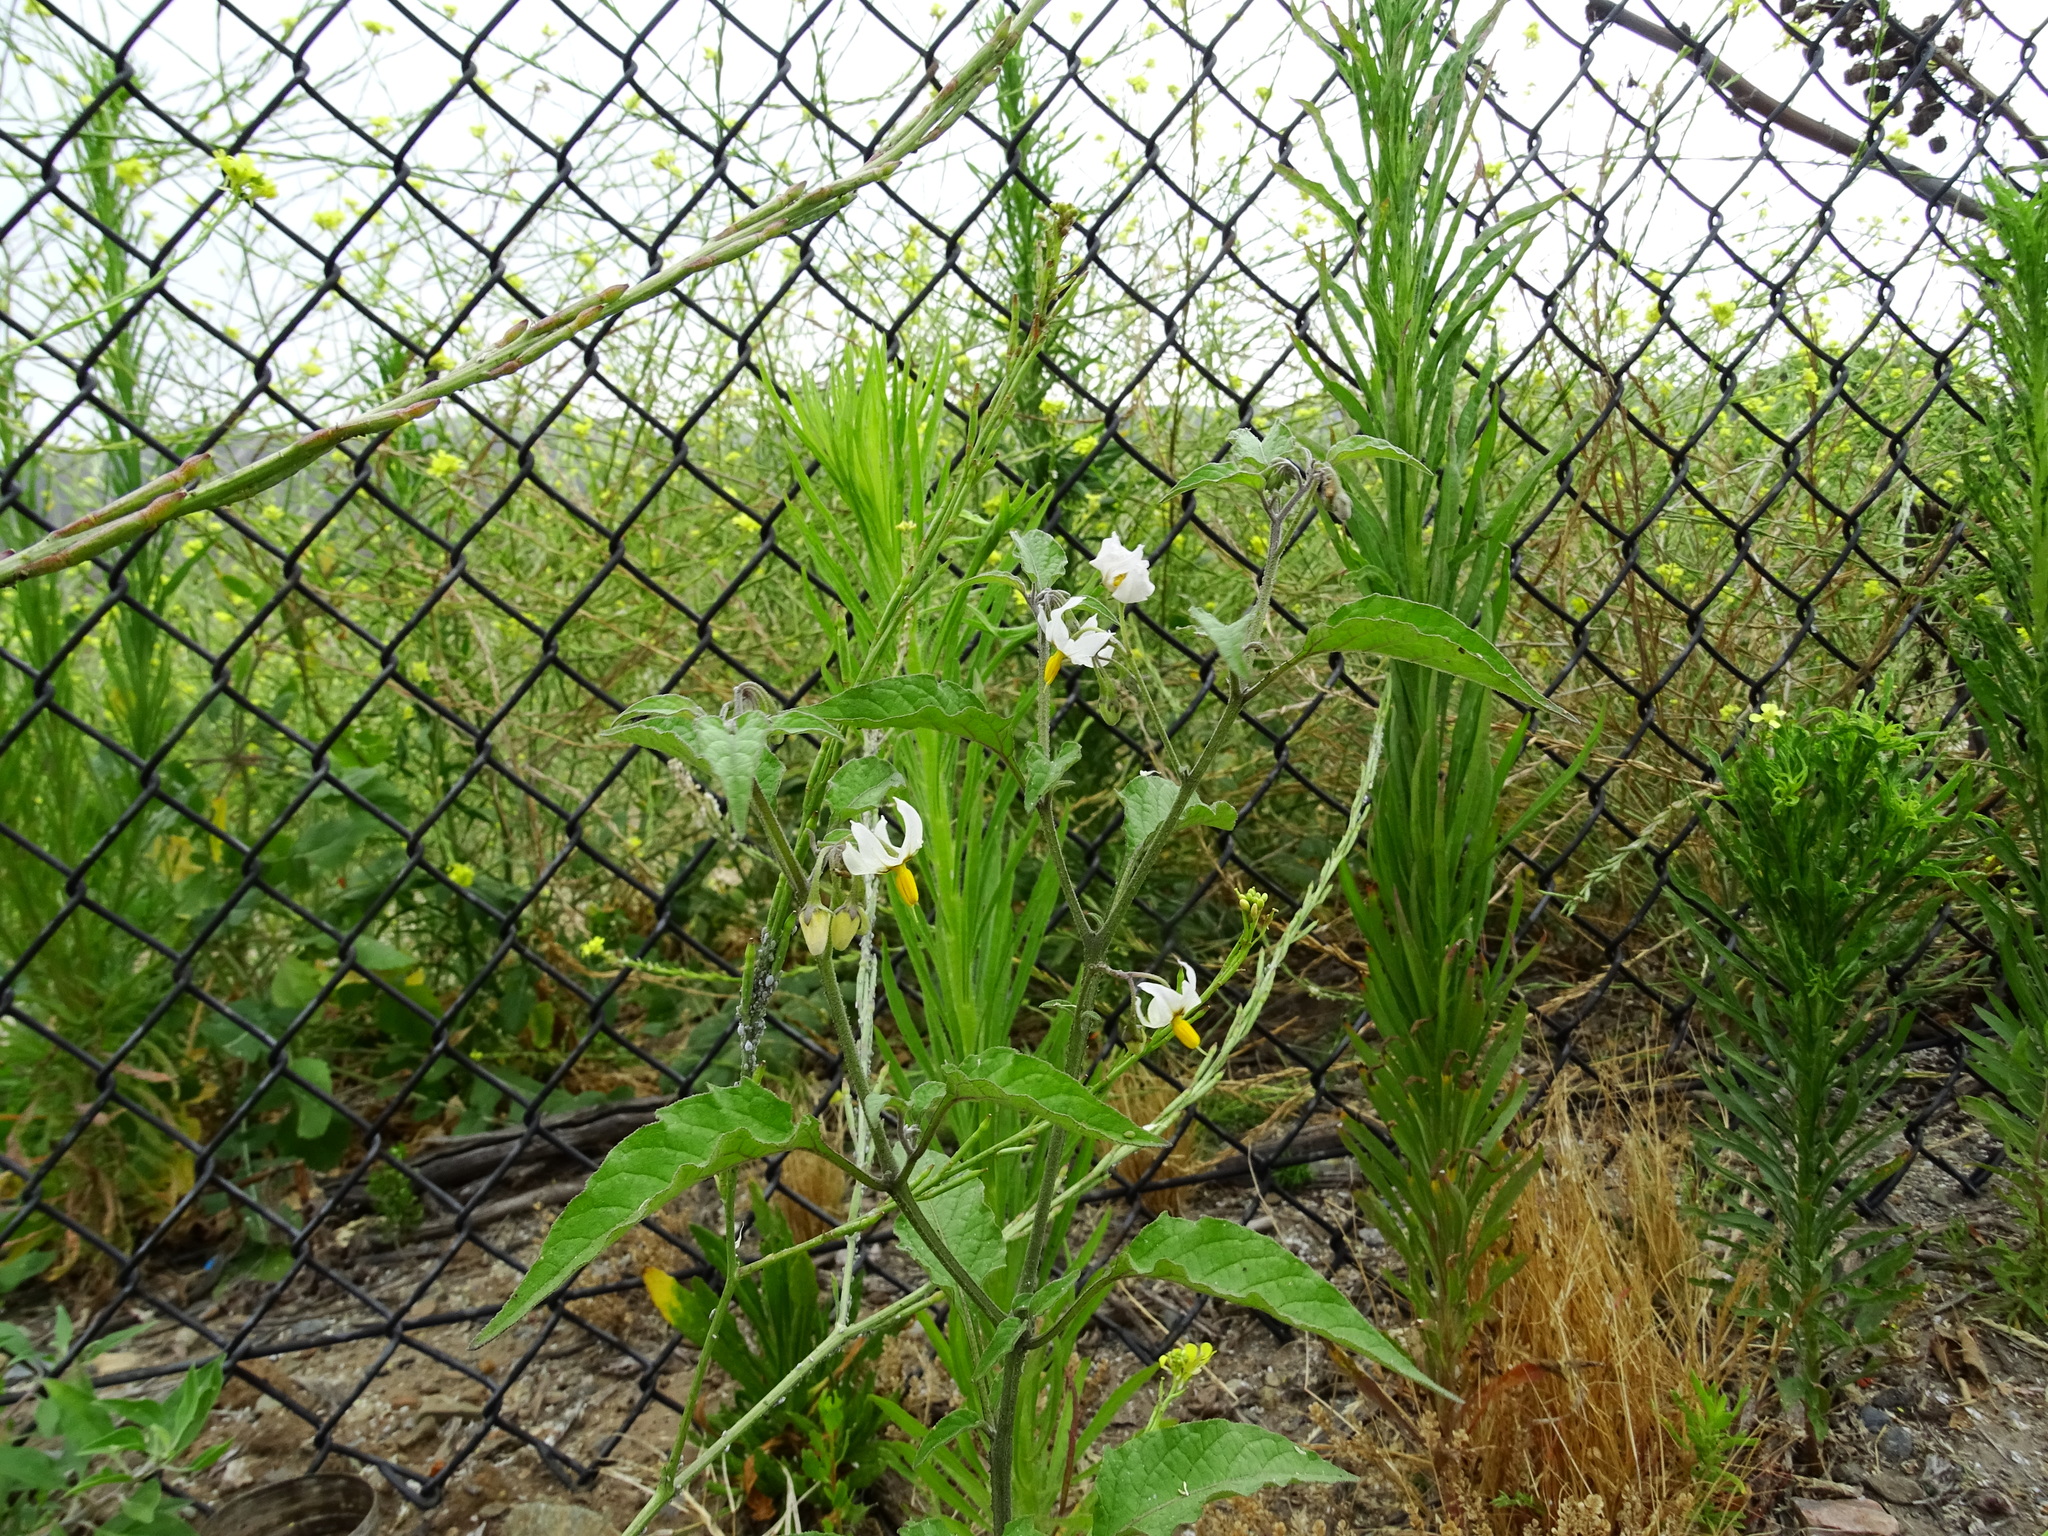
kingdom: Plantae
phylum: Tracheophyta
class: Magnoliopsida
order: Solanales
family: Solanaceae
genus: Solanum
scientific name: Solanum douglasii
